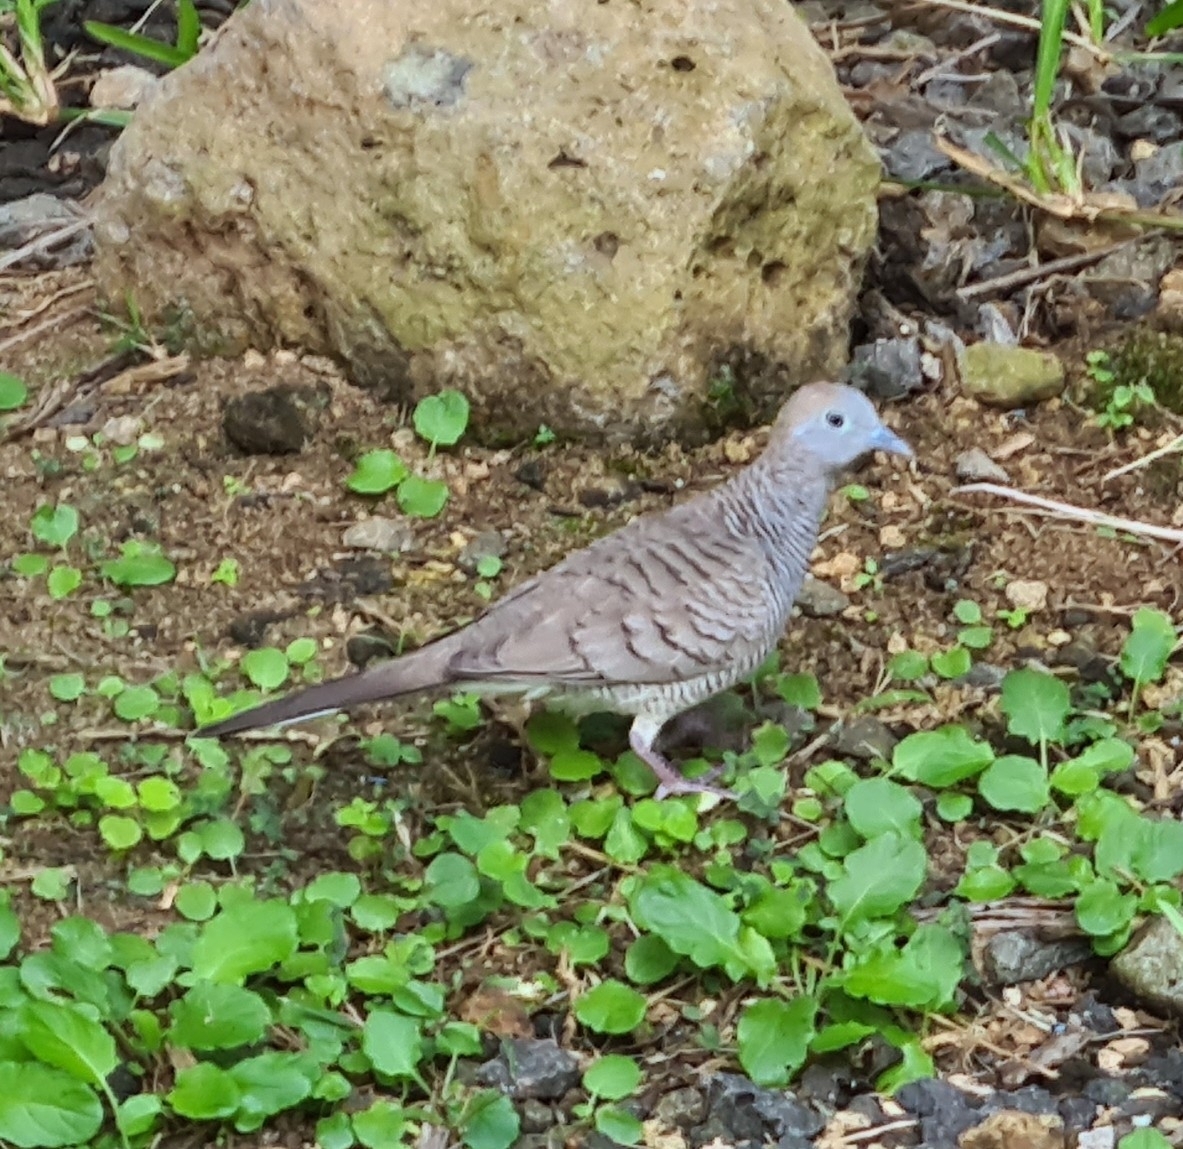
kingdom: Animalia
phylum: Chordata
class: Aves
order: Columbiformes
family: Columbidae
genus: Geopelia
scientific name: Geopelia striata
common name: Zebra dove
